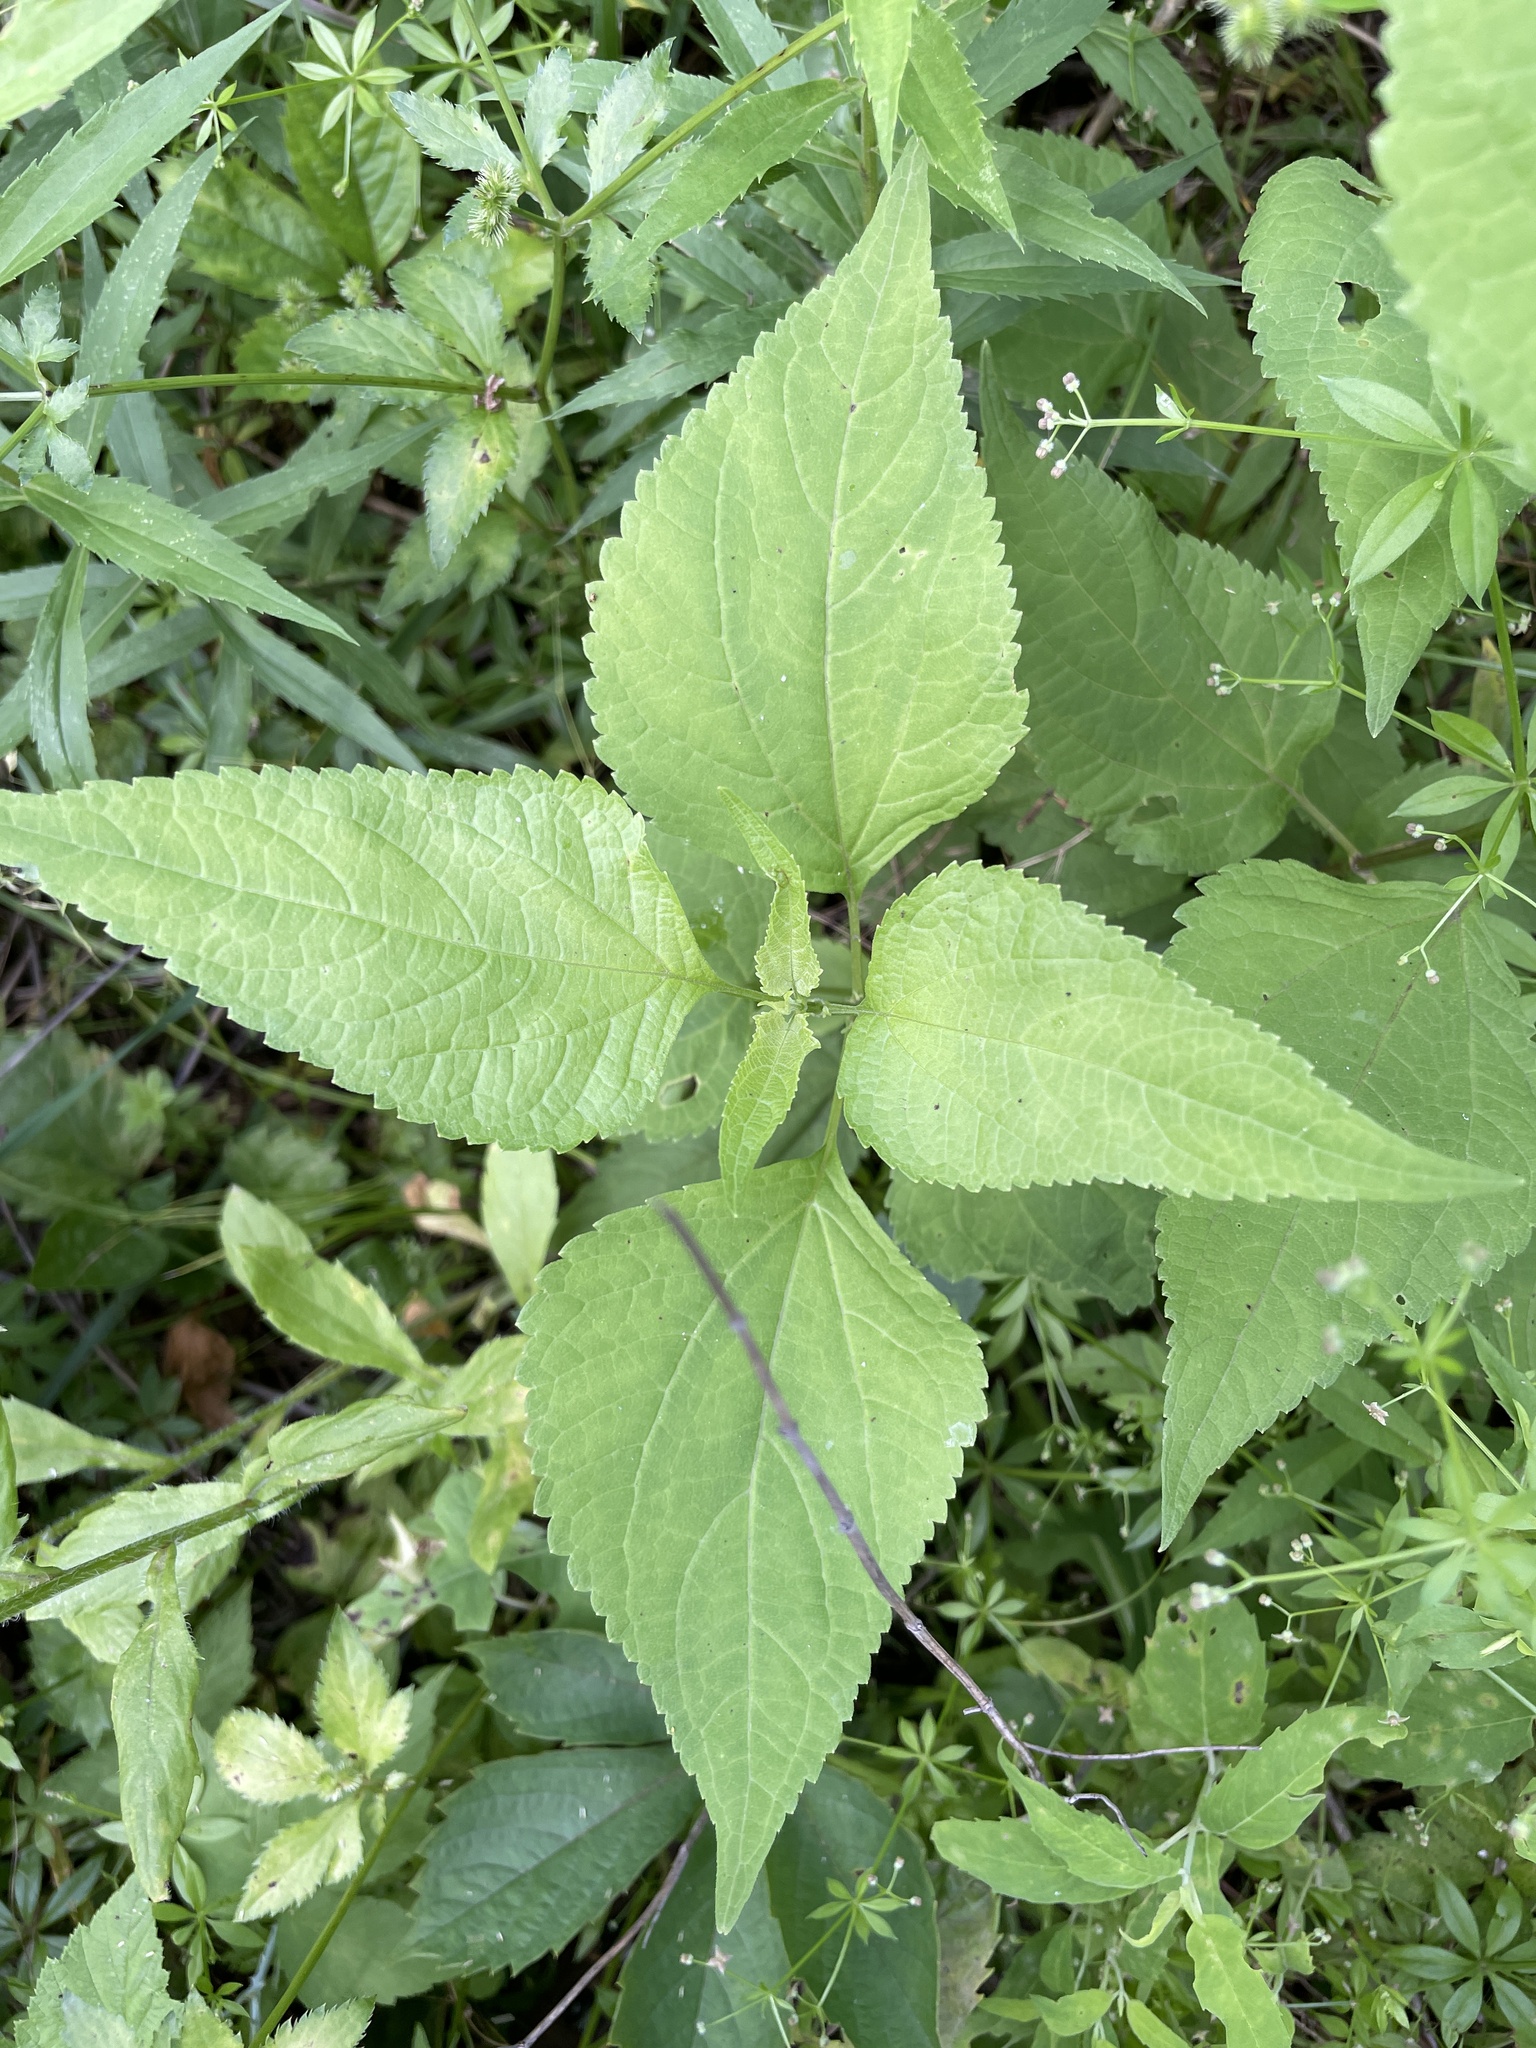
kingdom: Plantae
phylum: Tracheophyta
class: Magnoliopsida
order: Asterales
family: Asteraceae
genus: Ageratina
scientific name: Ageratina altissima
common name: White snakeroot
